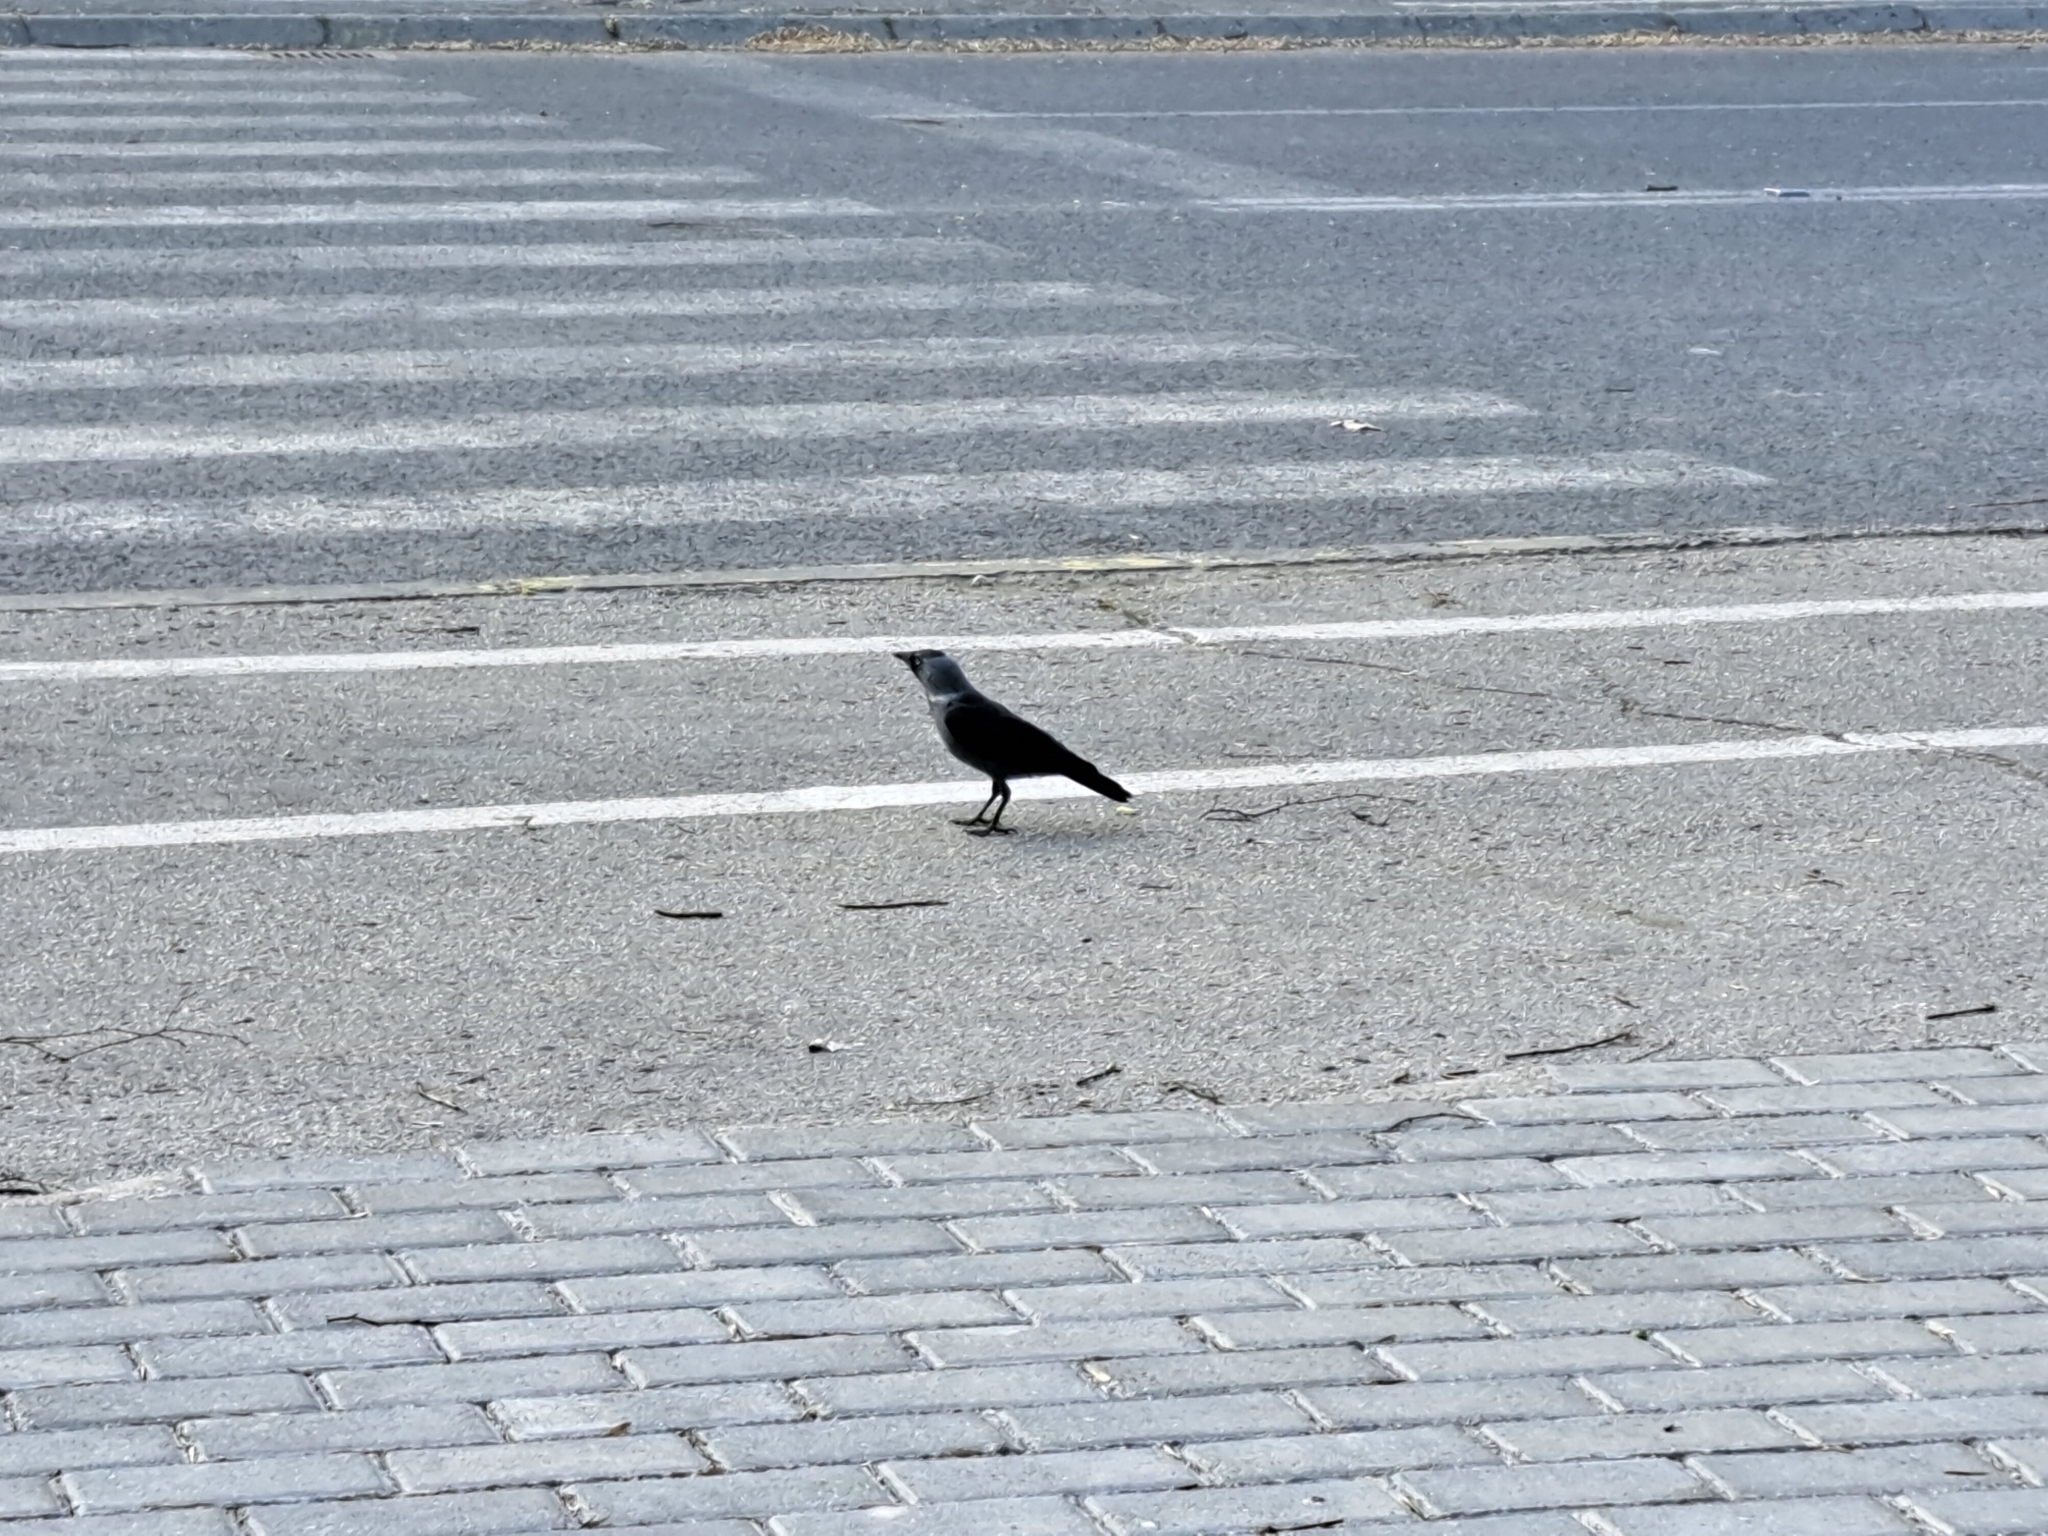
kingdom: Animalia
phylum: Chordata
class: Aves
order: Passeriformes
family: Corvidae
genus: Coloeus
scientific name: Coloeus monedula
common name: Western jackdaw
